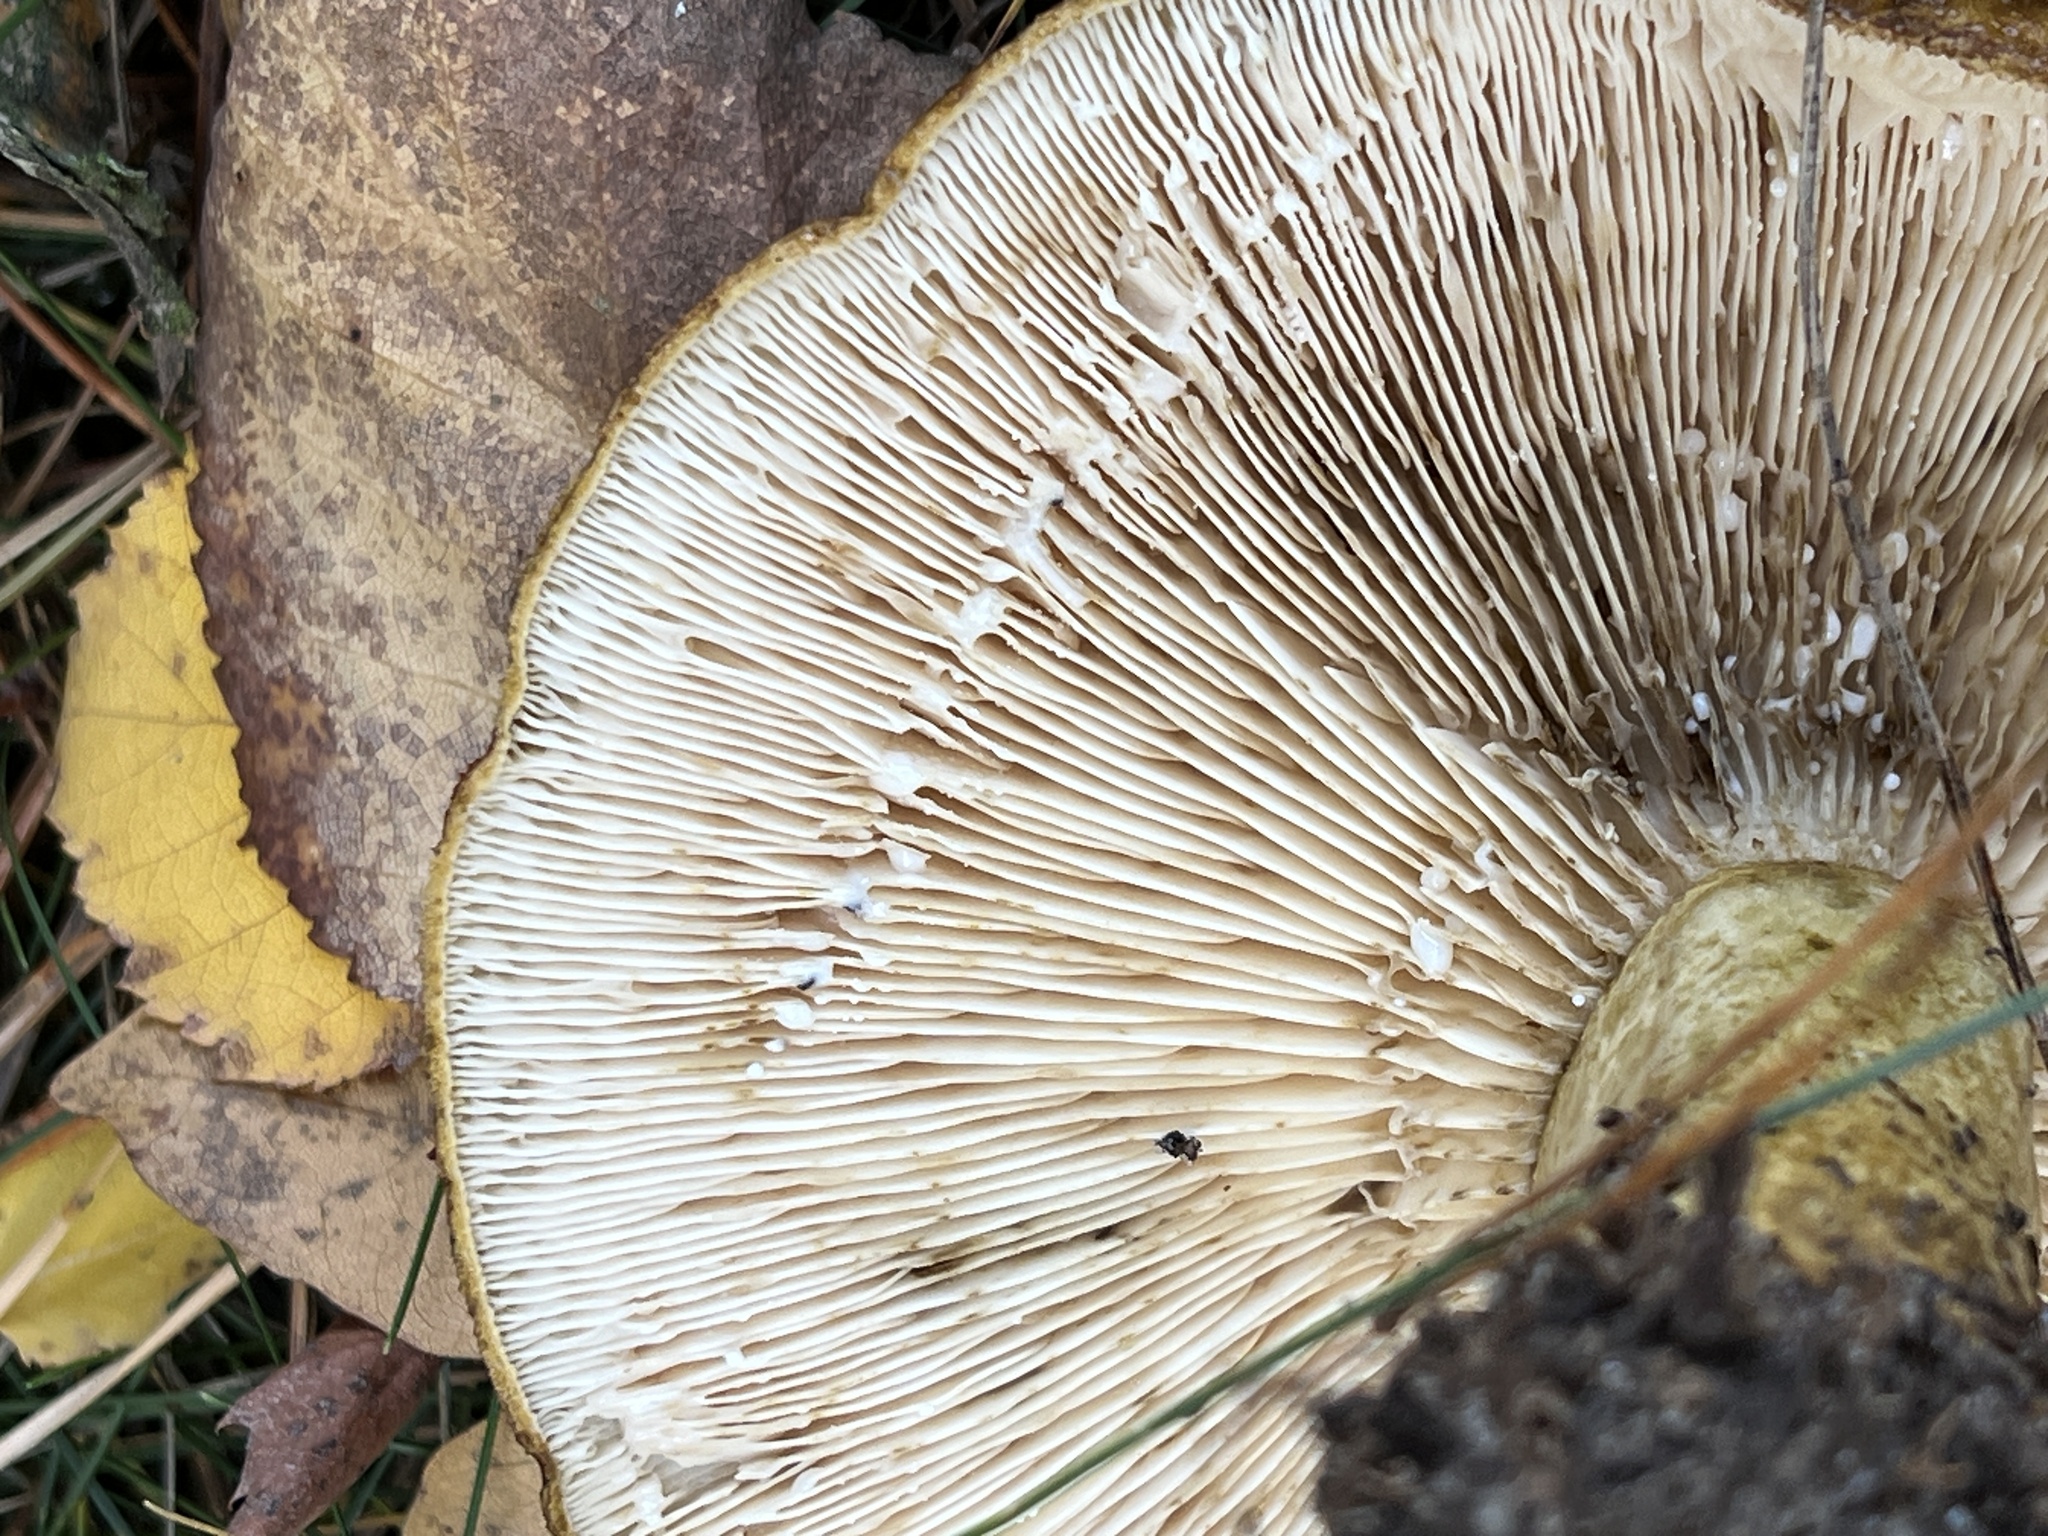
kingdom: Fungi
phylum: Basidiomycota
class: Agaricomycetes
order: Russulales
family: Russulaceae
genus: Lactarius
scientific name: Lactarius turpis
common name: Ugly milk-cap
